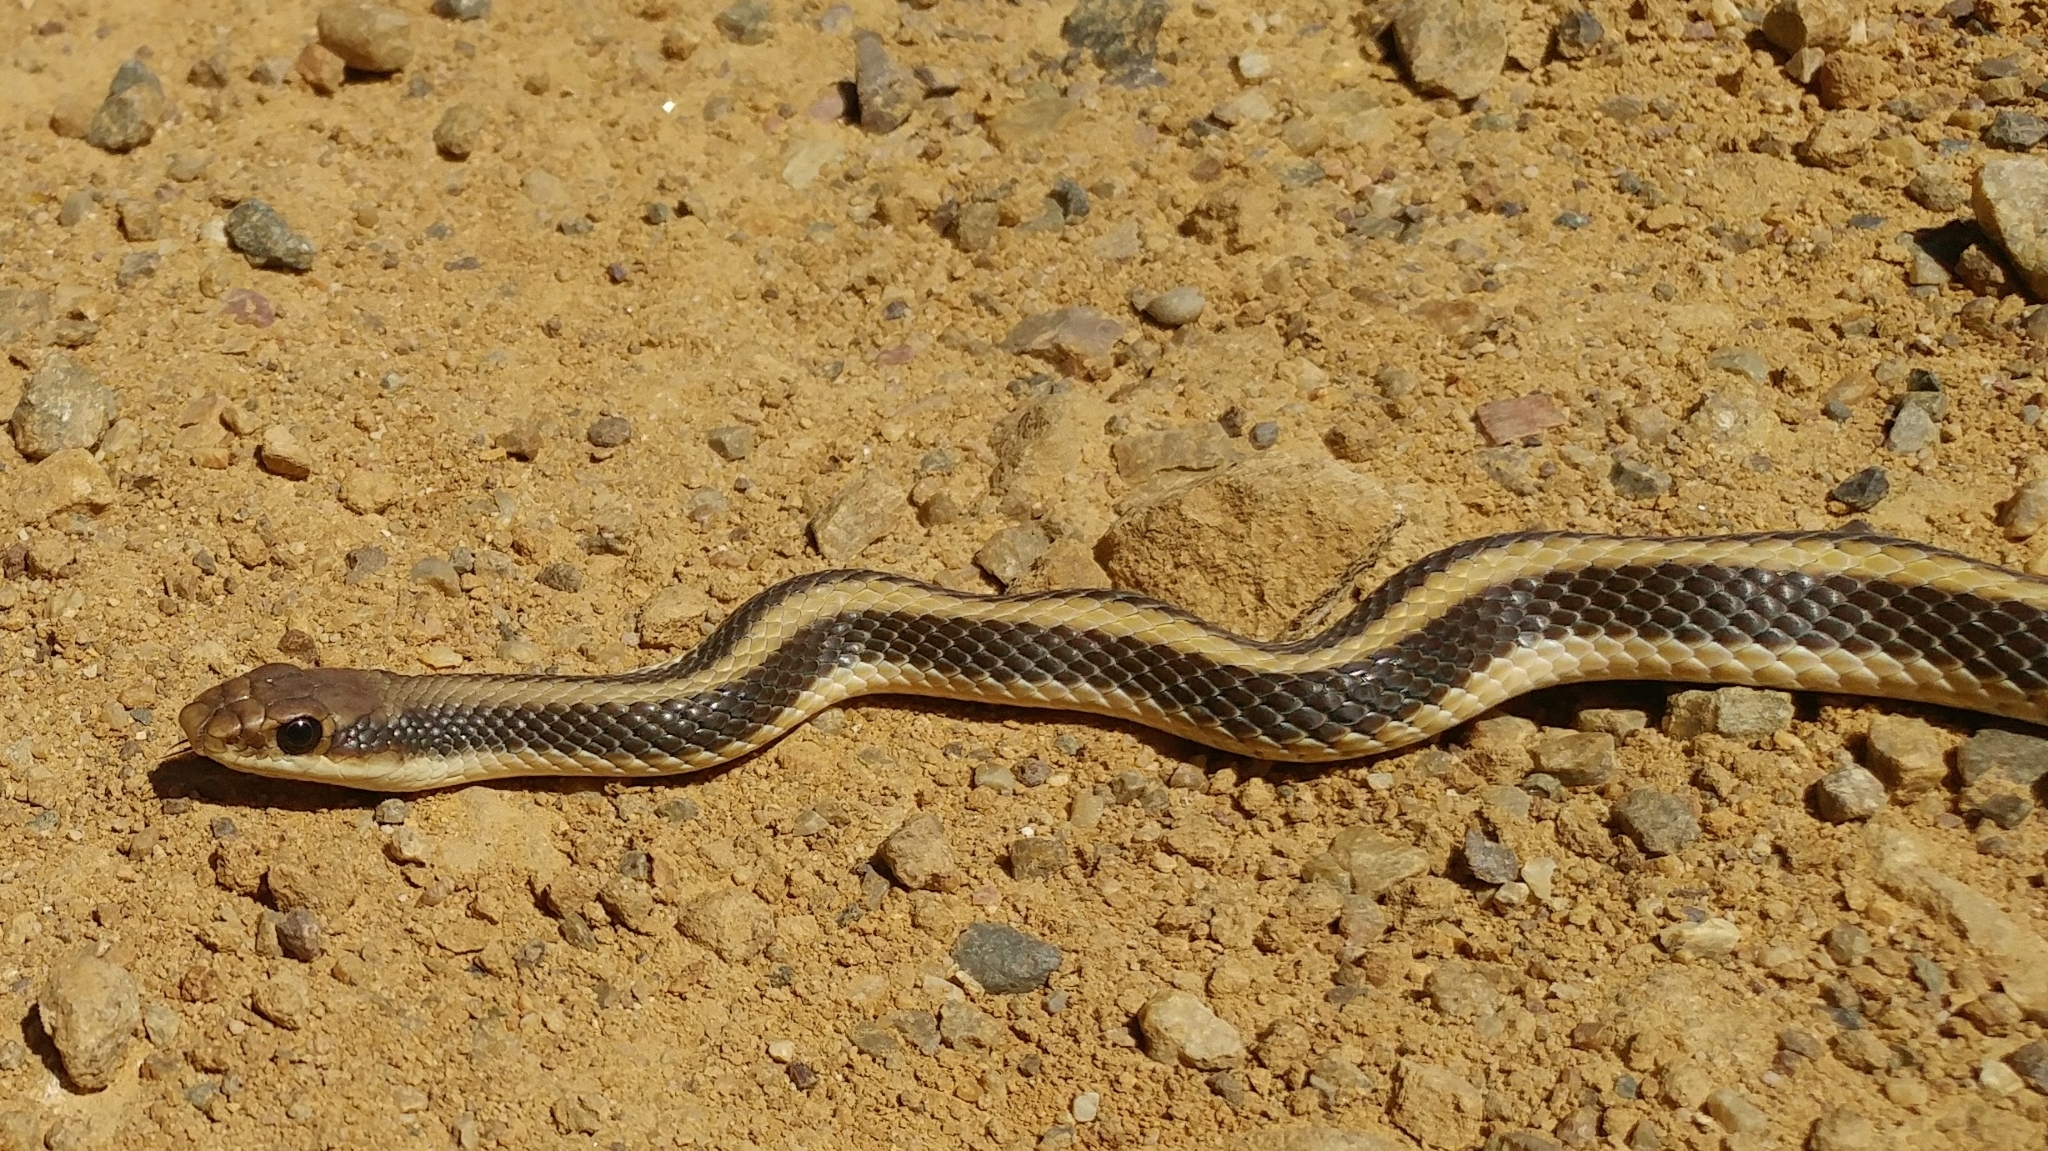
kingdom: Animalia
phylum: Chordata
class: Squamata
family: Colubridae
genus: Salvadora
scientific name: Salvadora hexalepis
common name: Western patchnose snake
